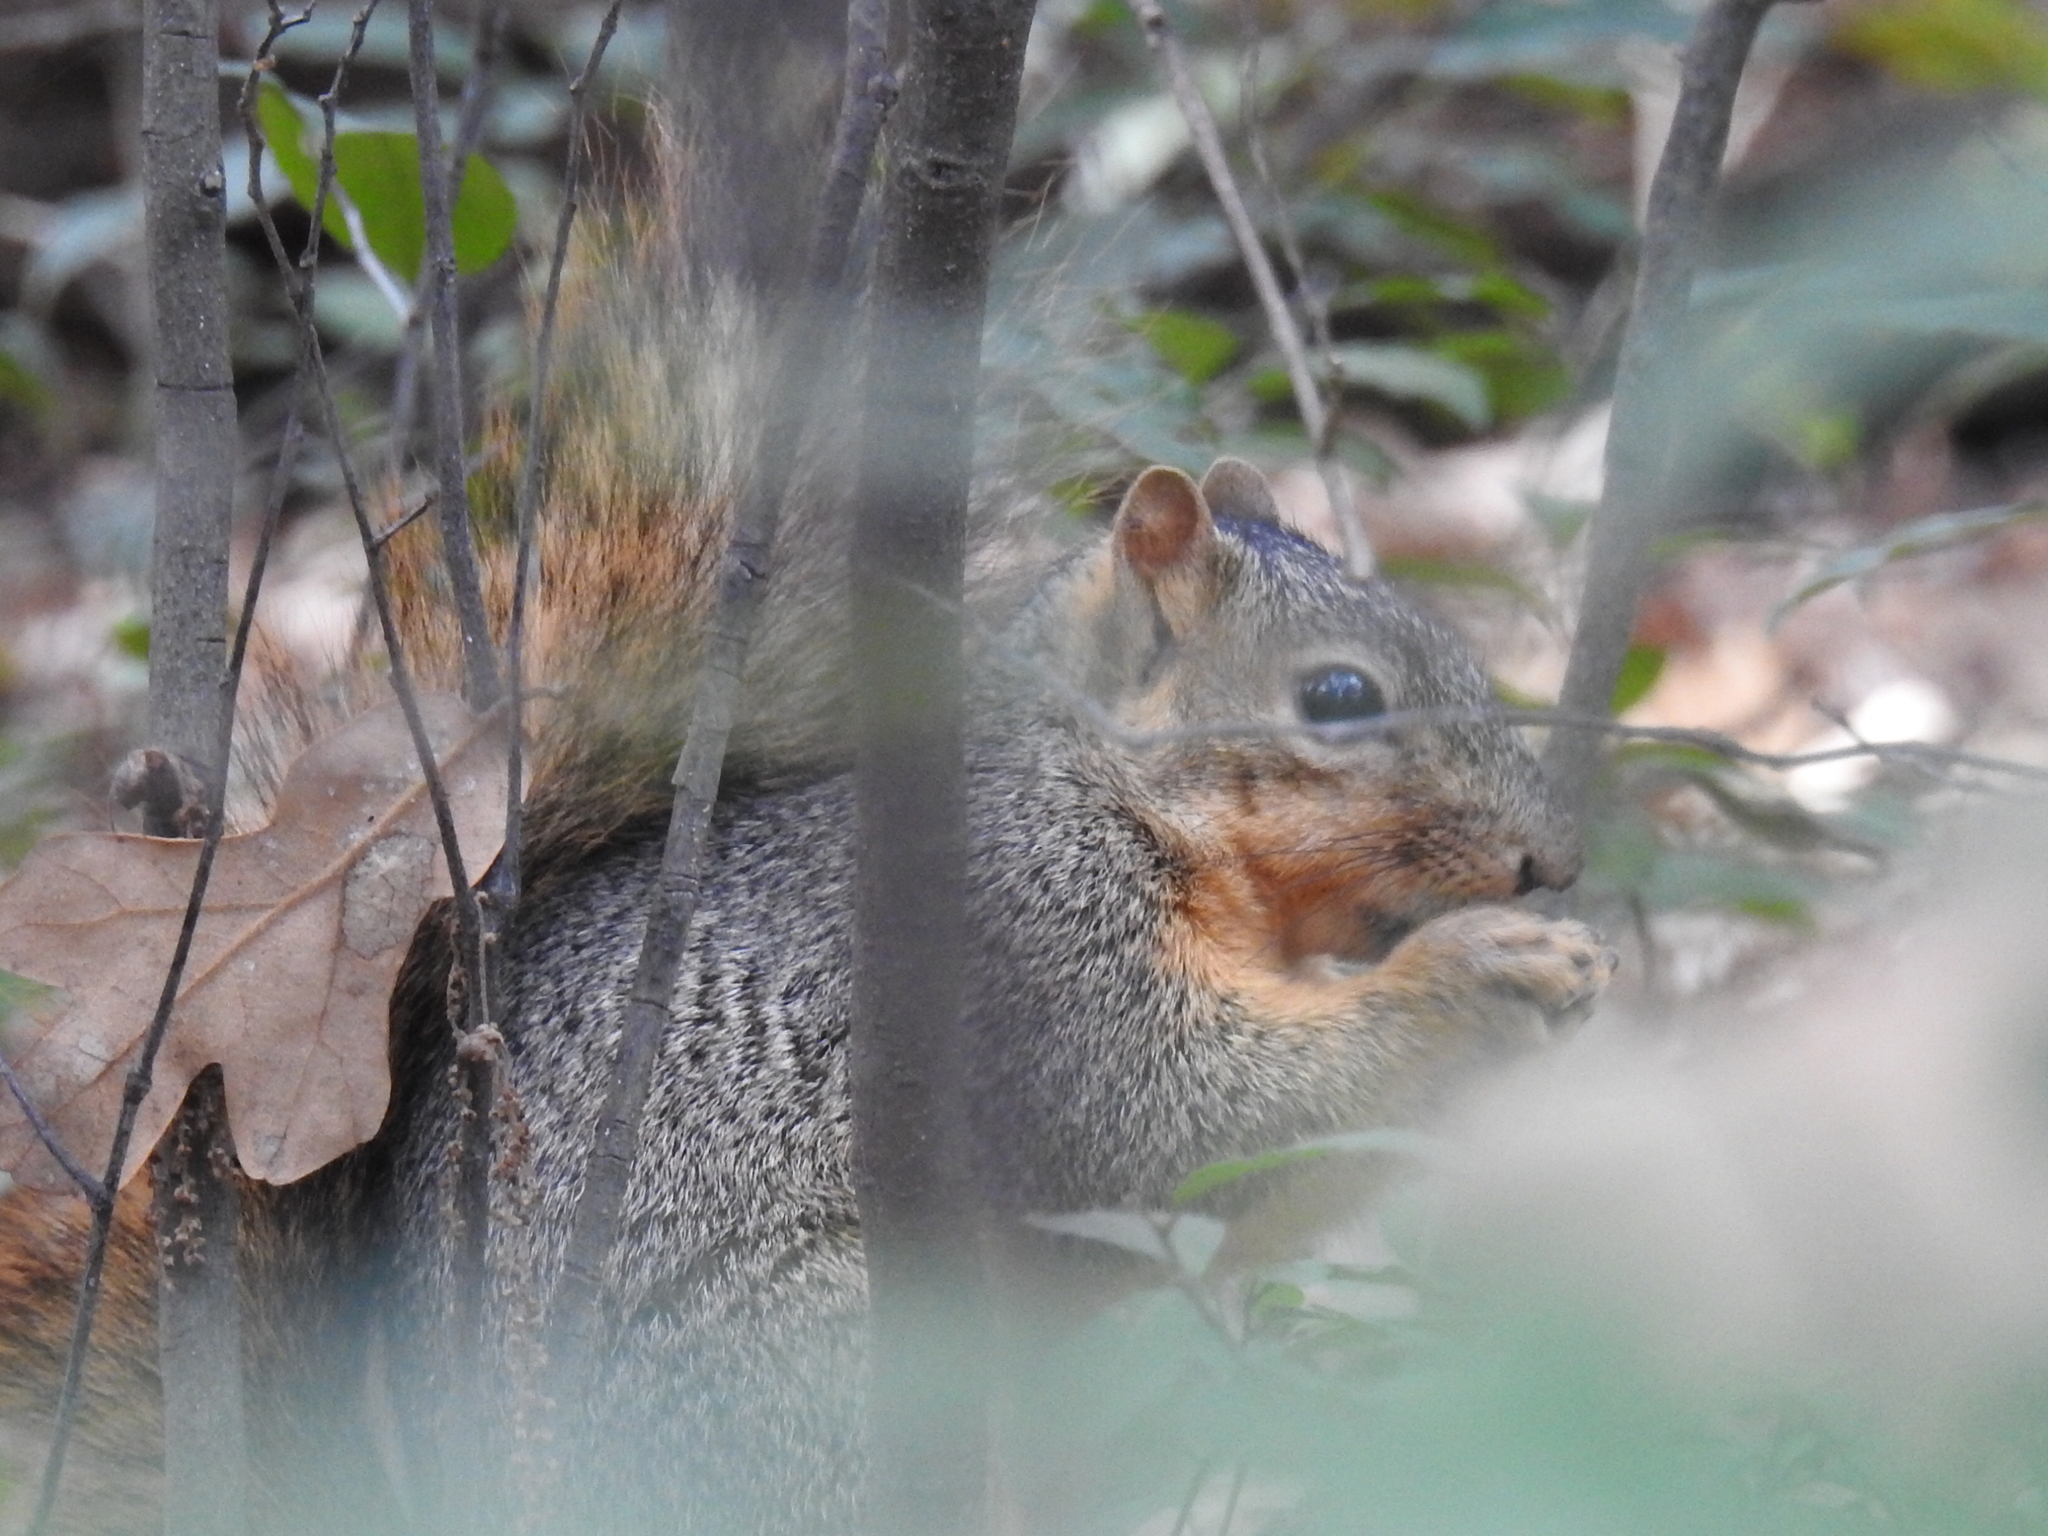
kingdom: Animalia
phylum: Chordata
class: Mammalia
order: Rodentia
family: Sciuridae
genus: Sciurus
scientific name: Sciurus niger
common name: Fox squirrel
